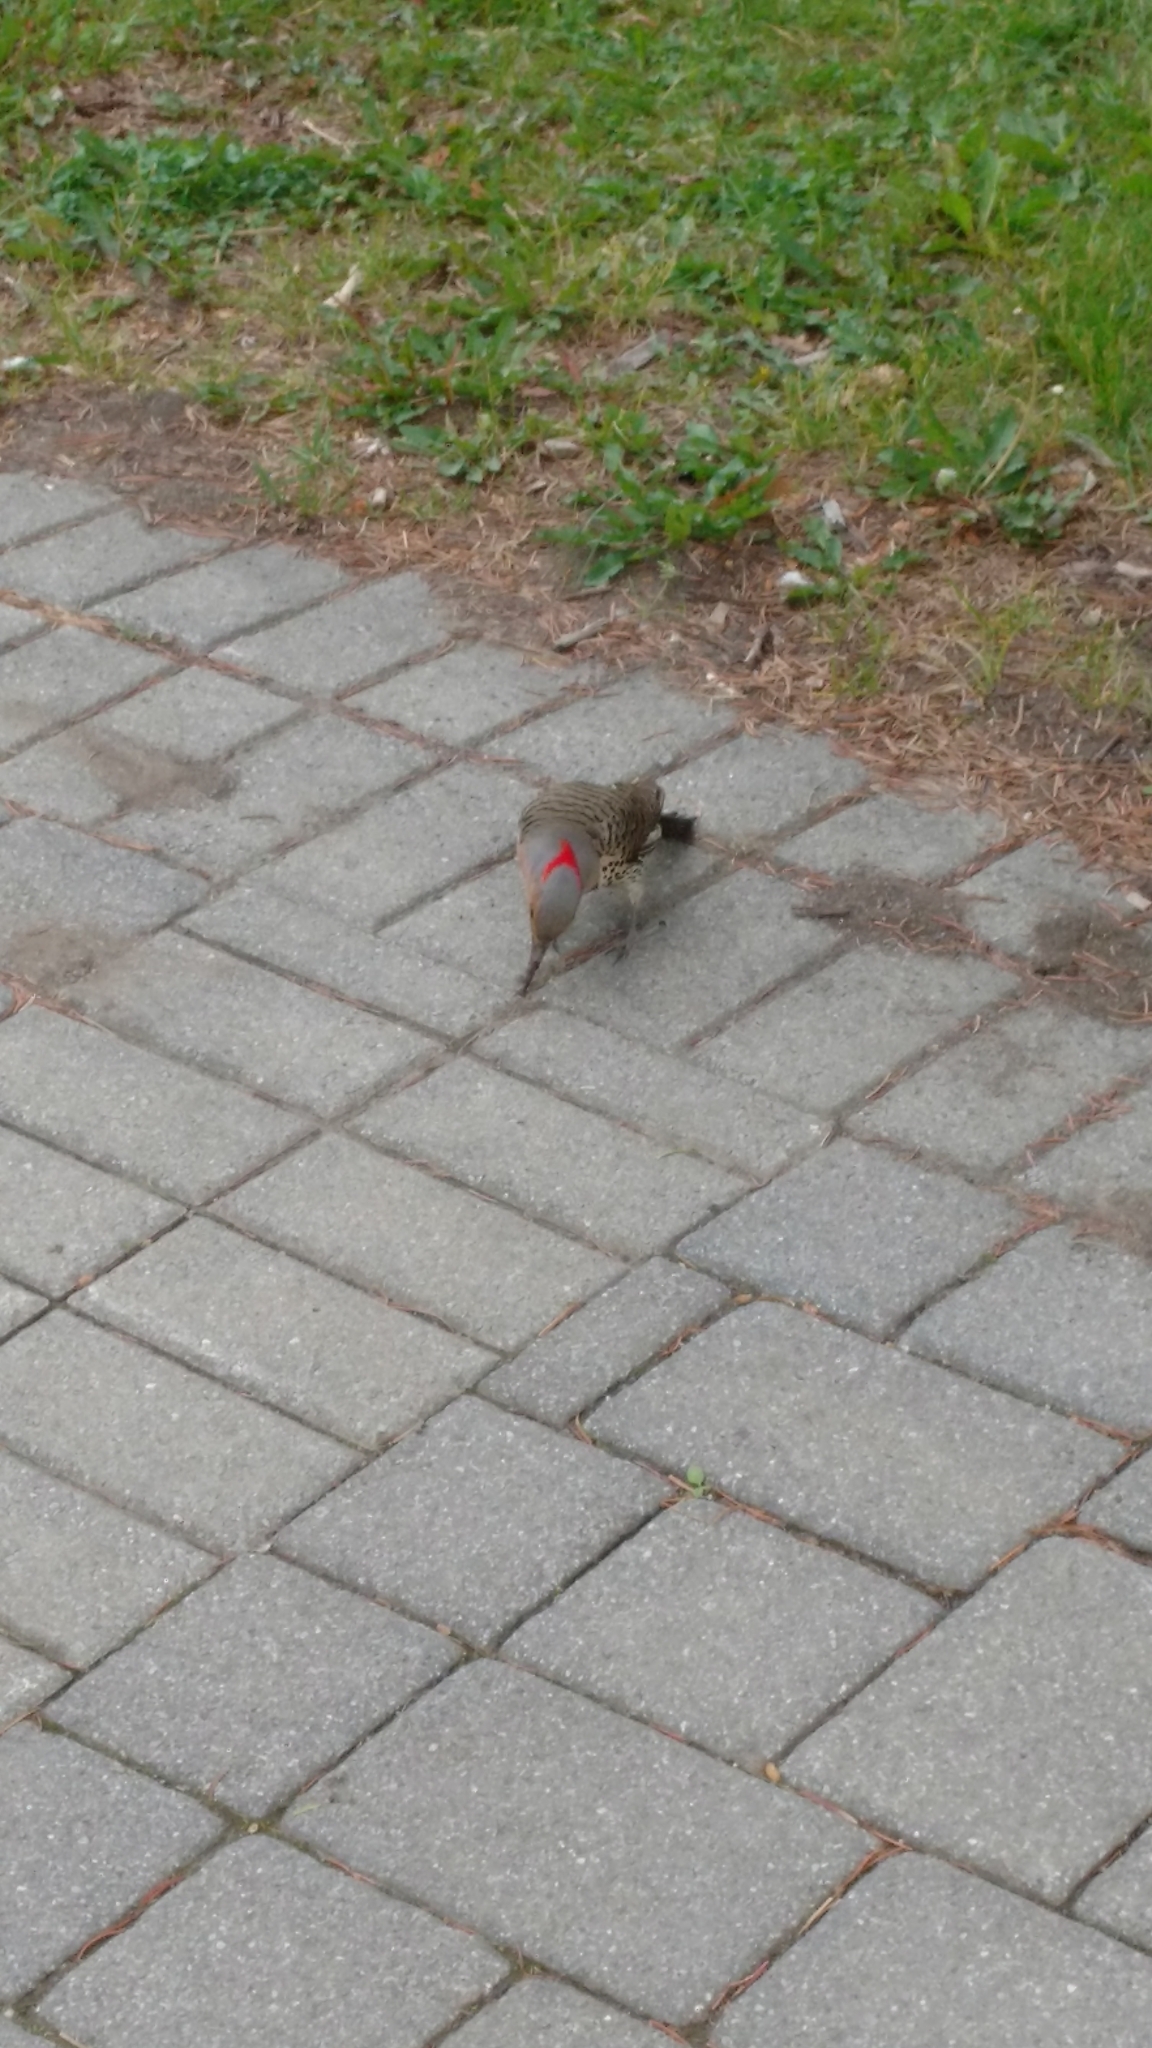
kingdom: Animalia
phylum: Chordata
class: Aves
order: Piciformes
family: Picidae
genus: Colaptes
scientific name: Colaptes auratus
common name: Northern flicker
